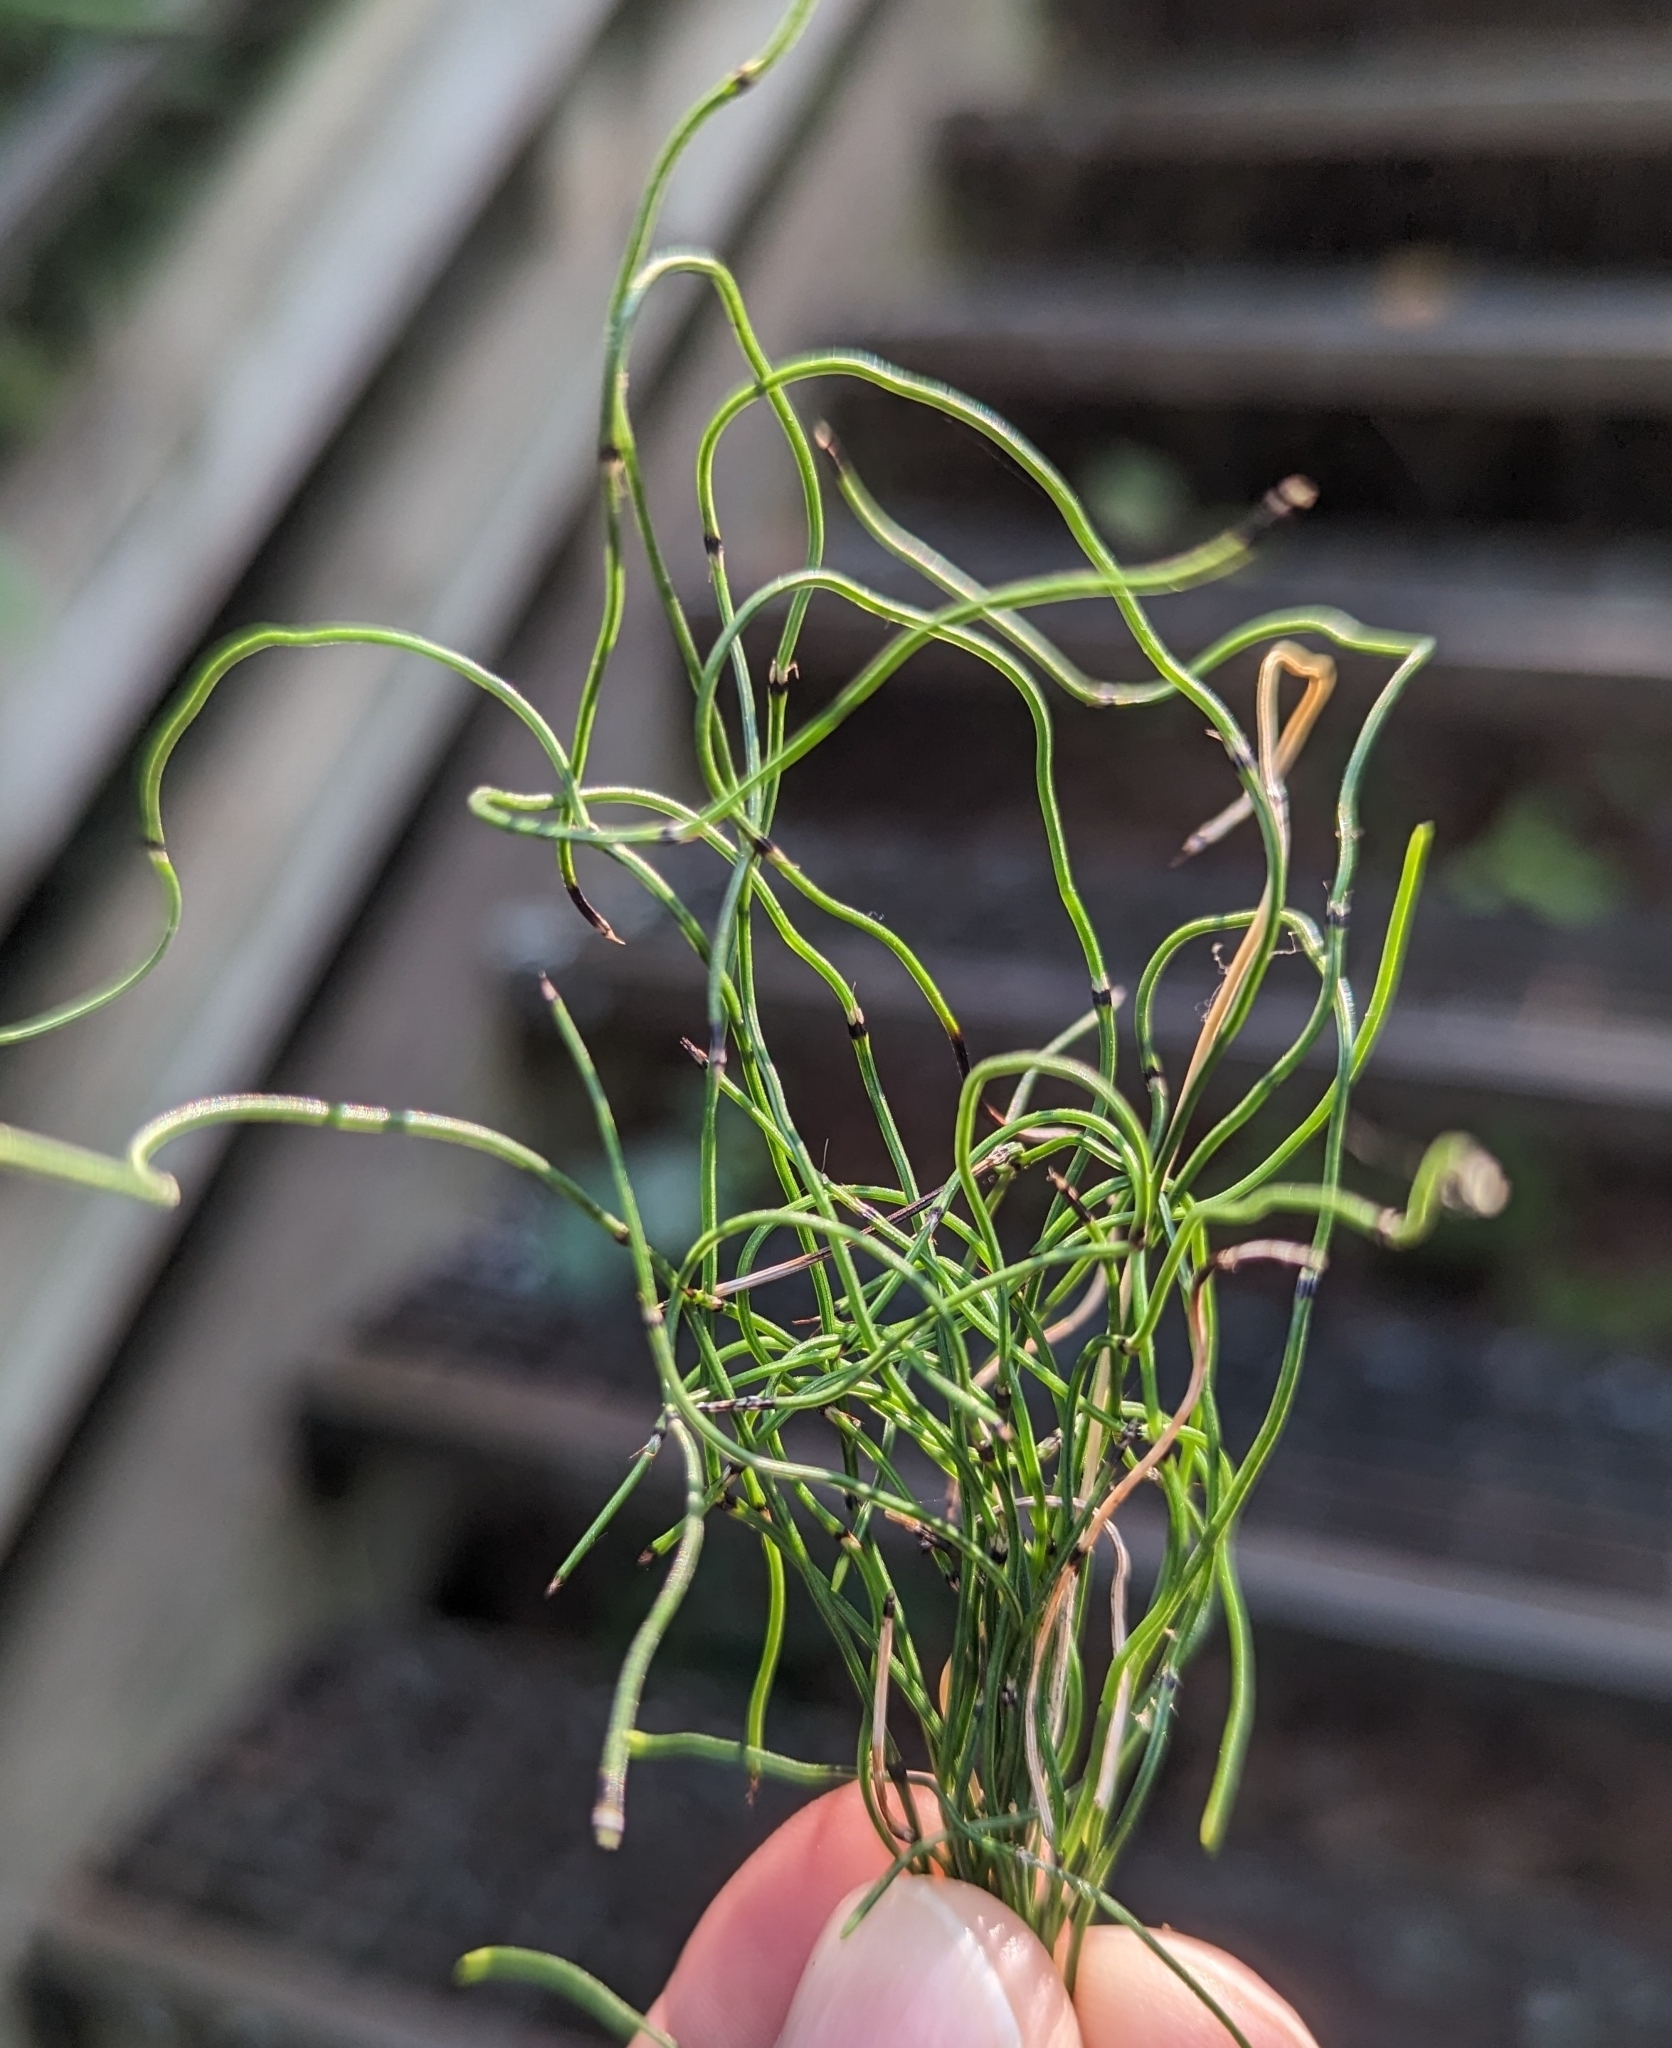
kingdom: Plantae
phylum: Tracheophyta
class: Polypodiopsida
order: Equisetales
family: Equisetaceae
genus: Equisetum
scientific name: Equisetum scirpoides
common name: Delicate horsetail
